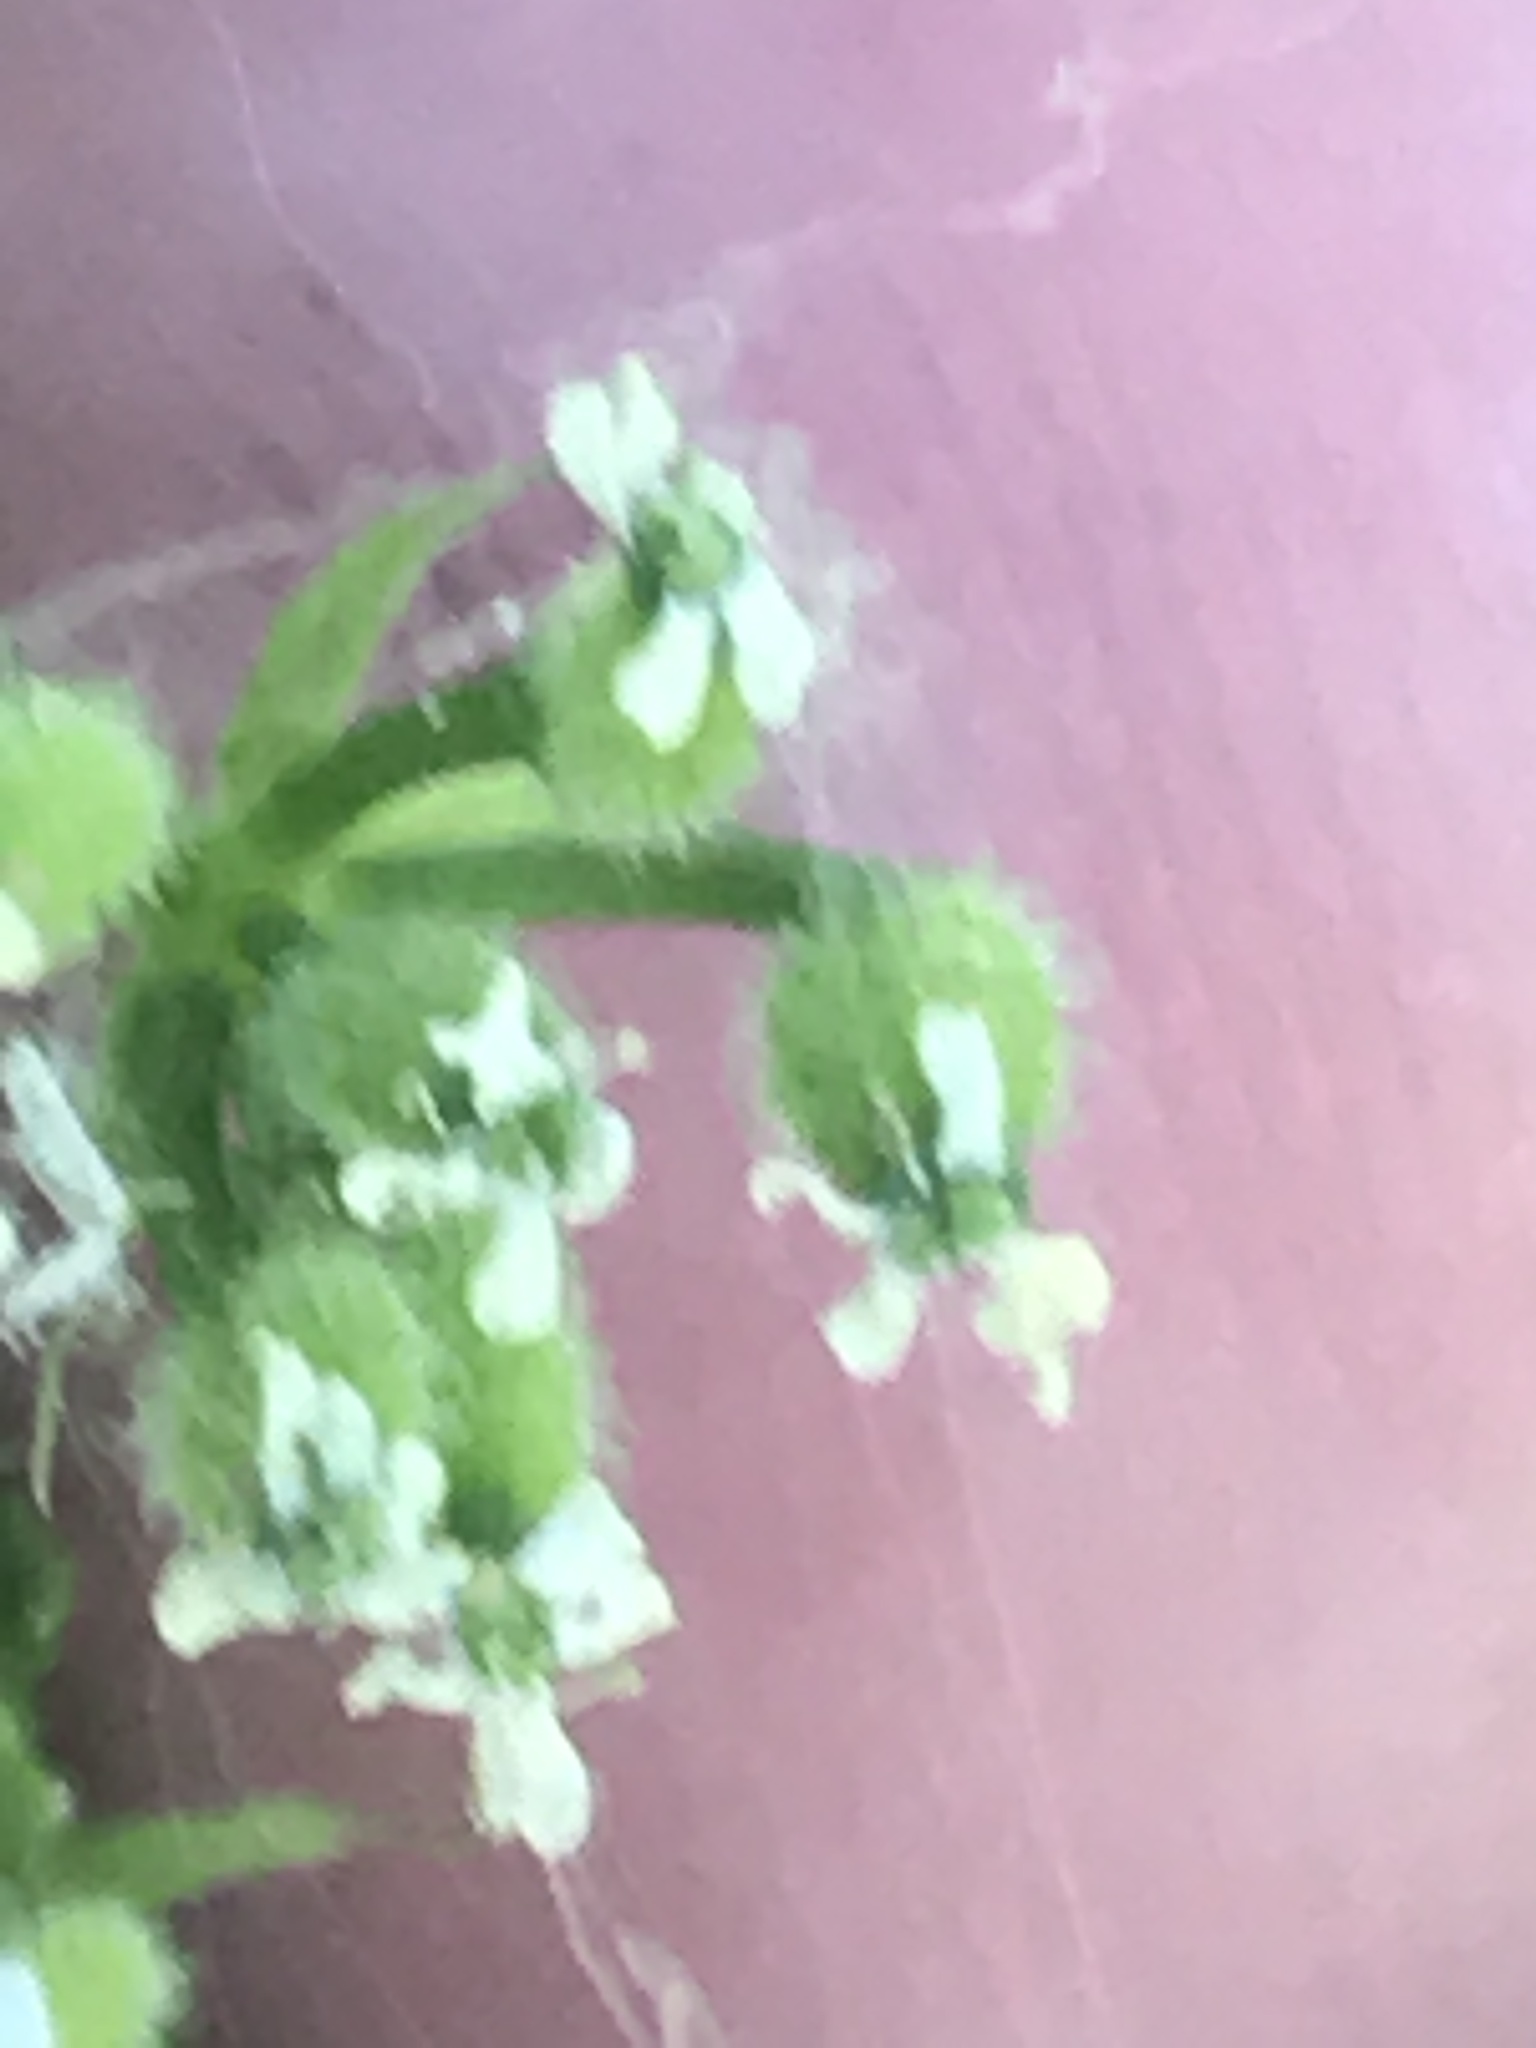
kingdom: Plantae
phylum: Tracheophyta
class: Magnoliopsida
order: Apiales
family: Apiaceae
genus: Anthriscus
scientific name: Anthriscus caucalis
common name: Bur chervil
